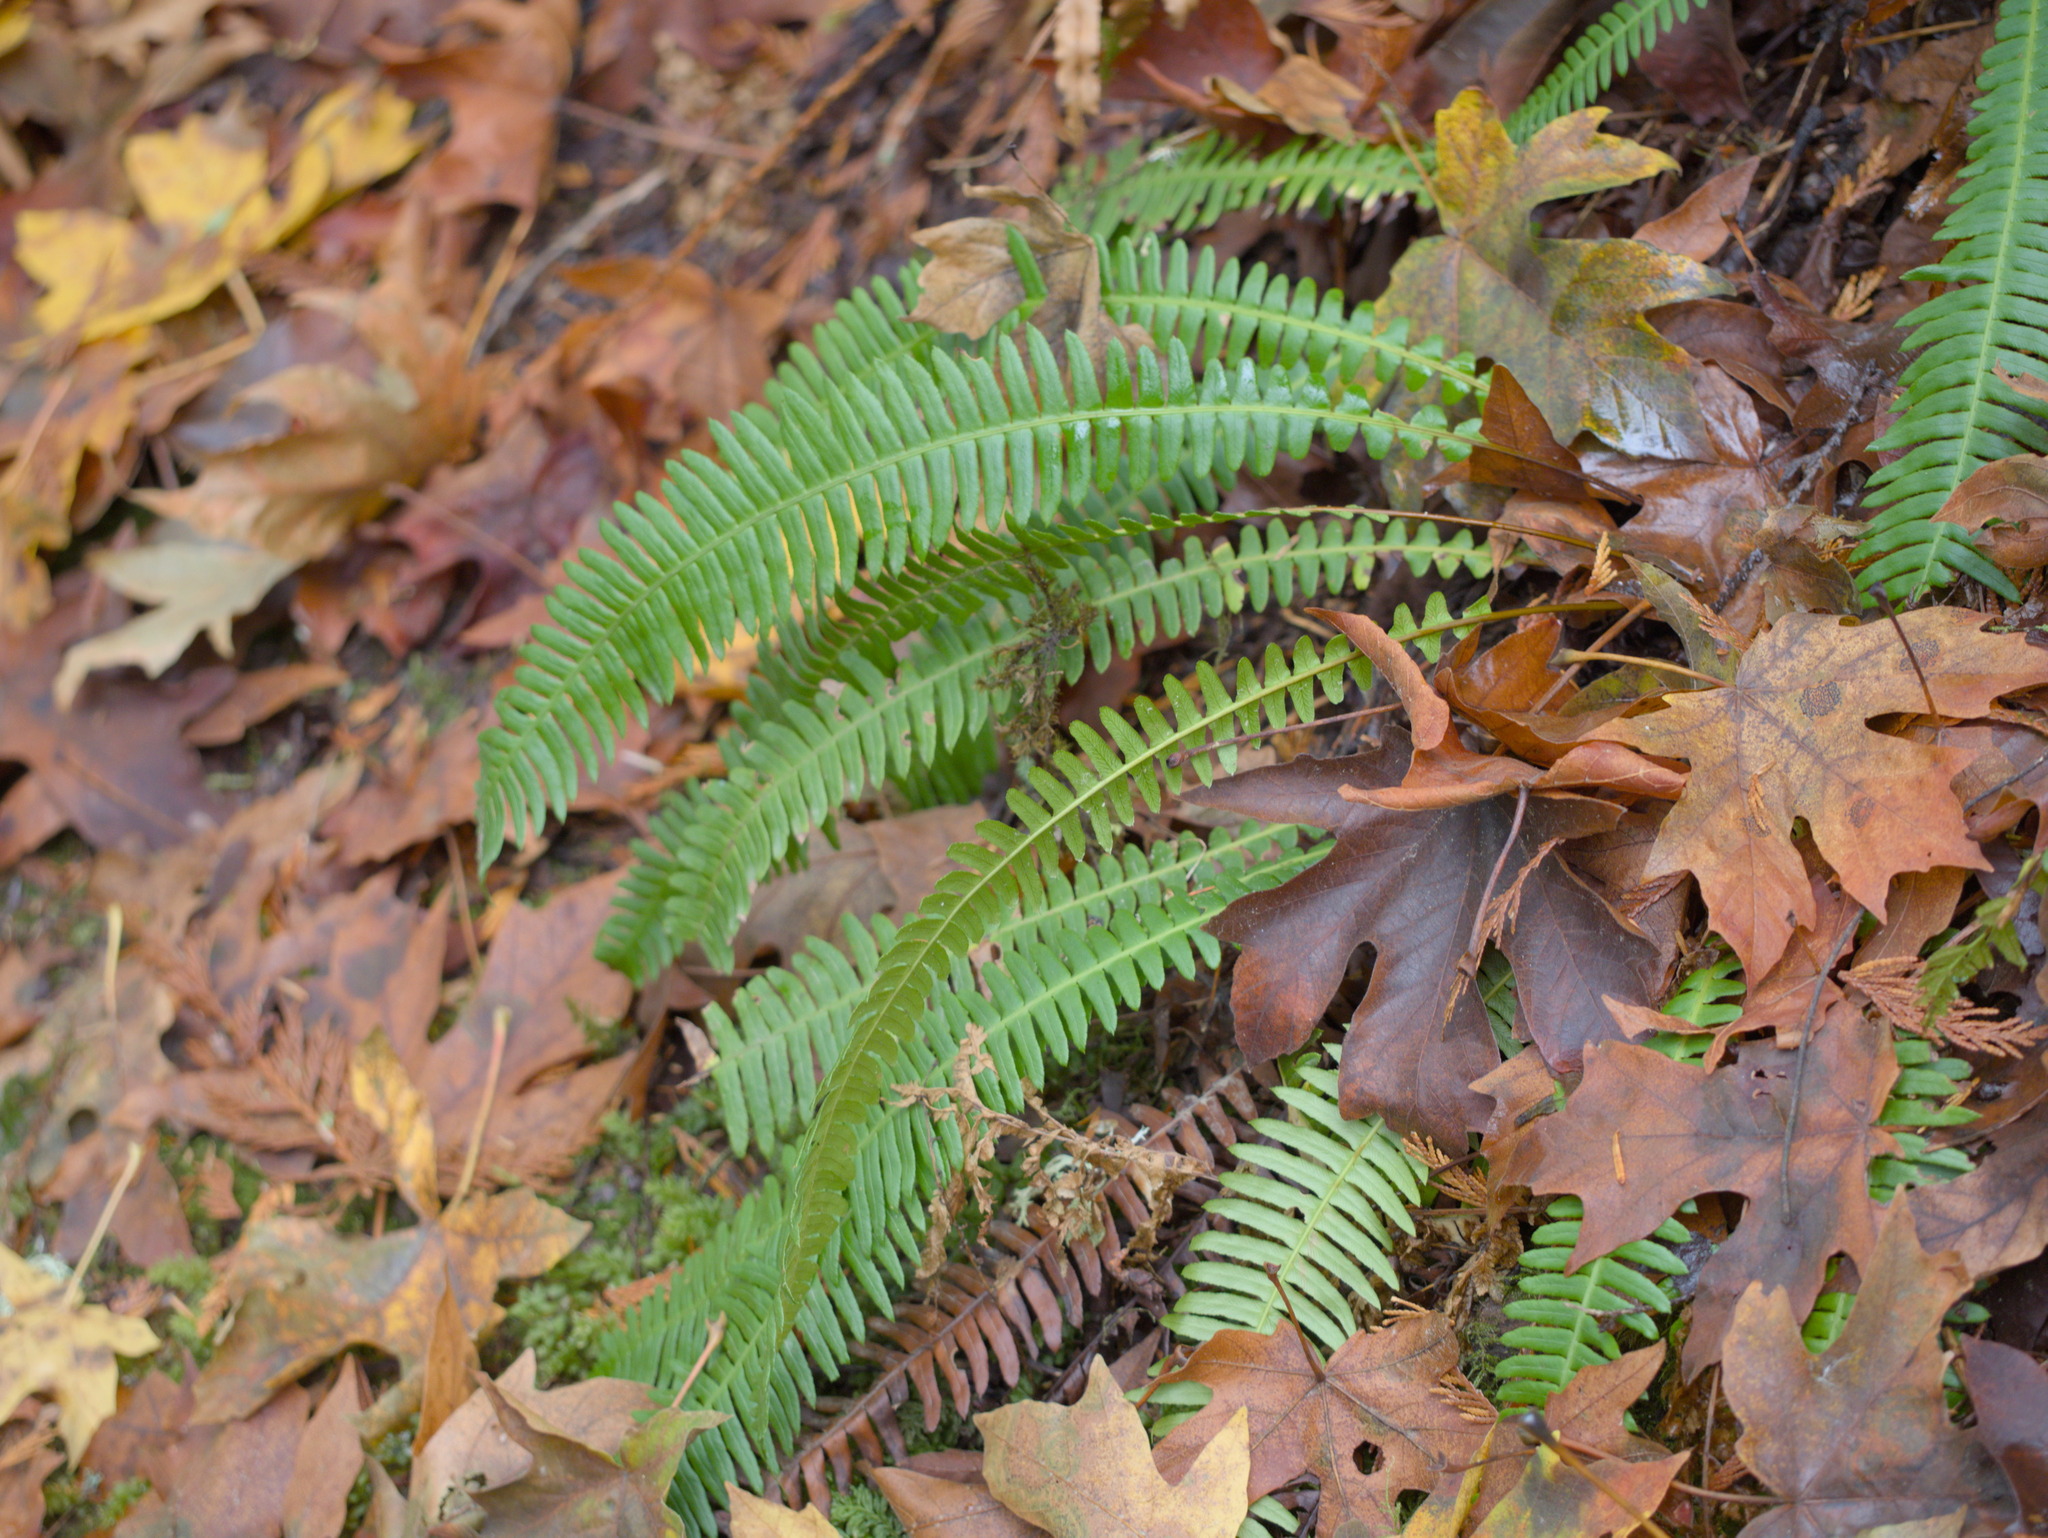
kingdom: Plantae
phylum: Tracheophyta
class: Polypodiopsida
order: Polypodiales
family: Blechnaceae
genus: Struthiopteris
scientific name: Struthiopteris spicant
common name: Deer fern
